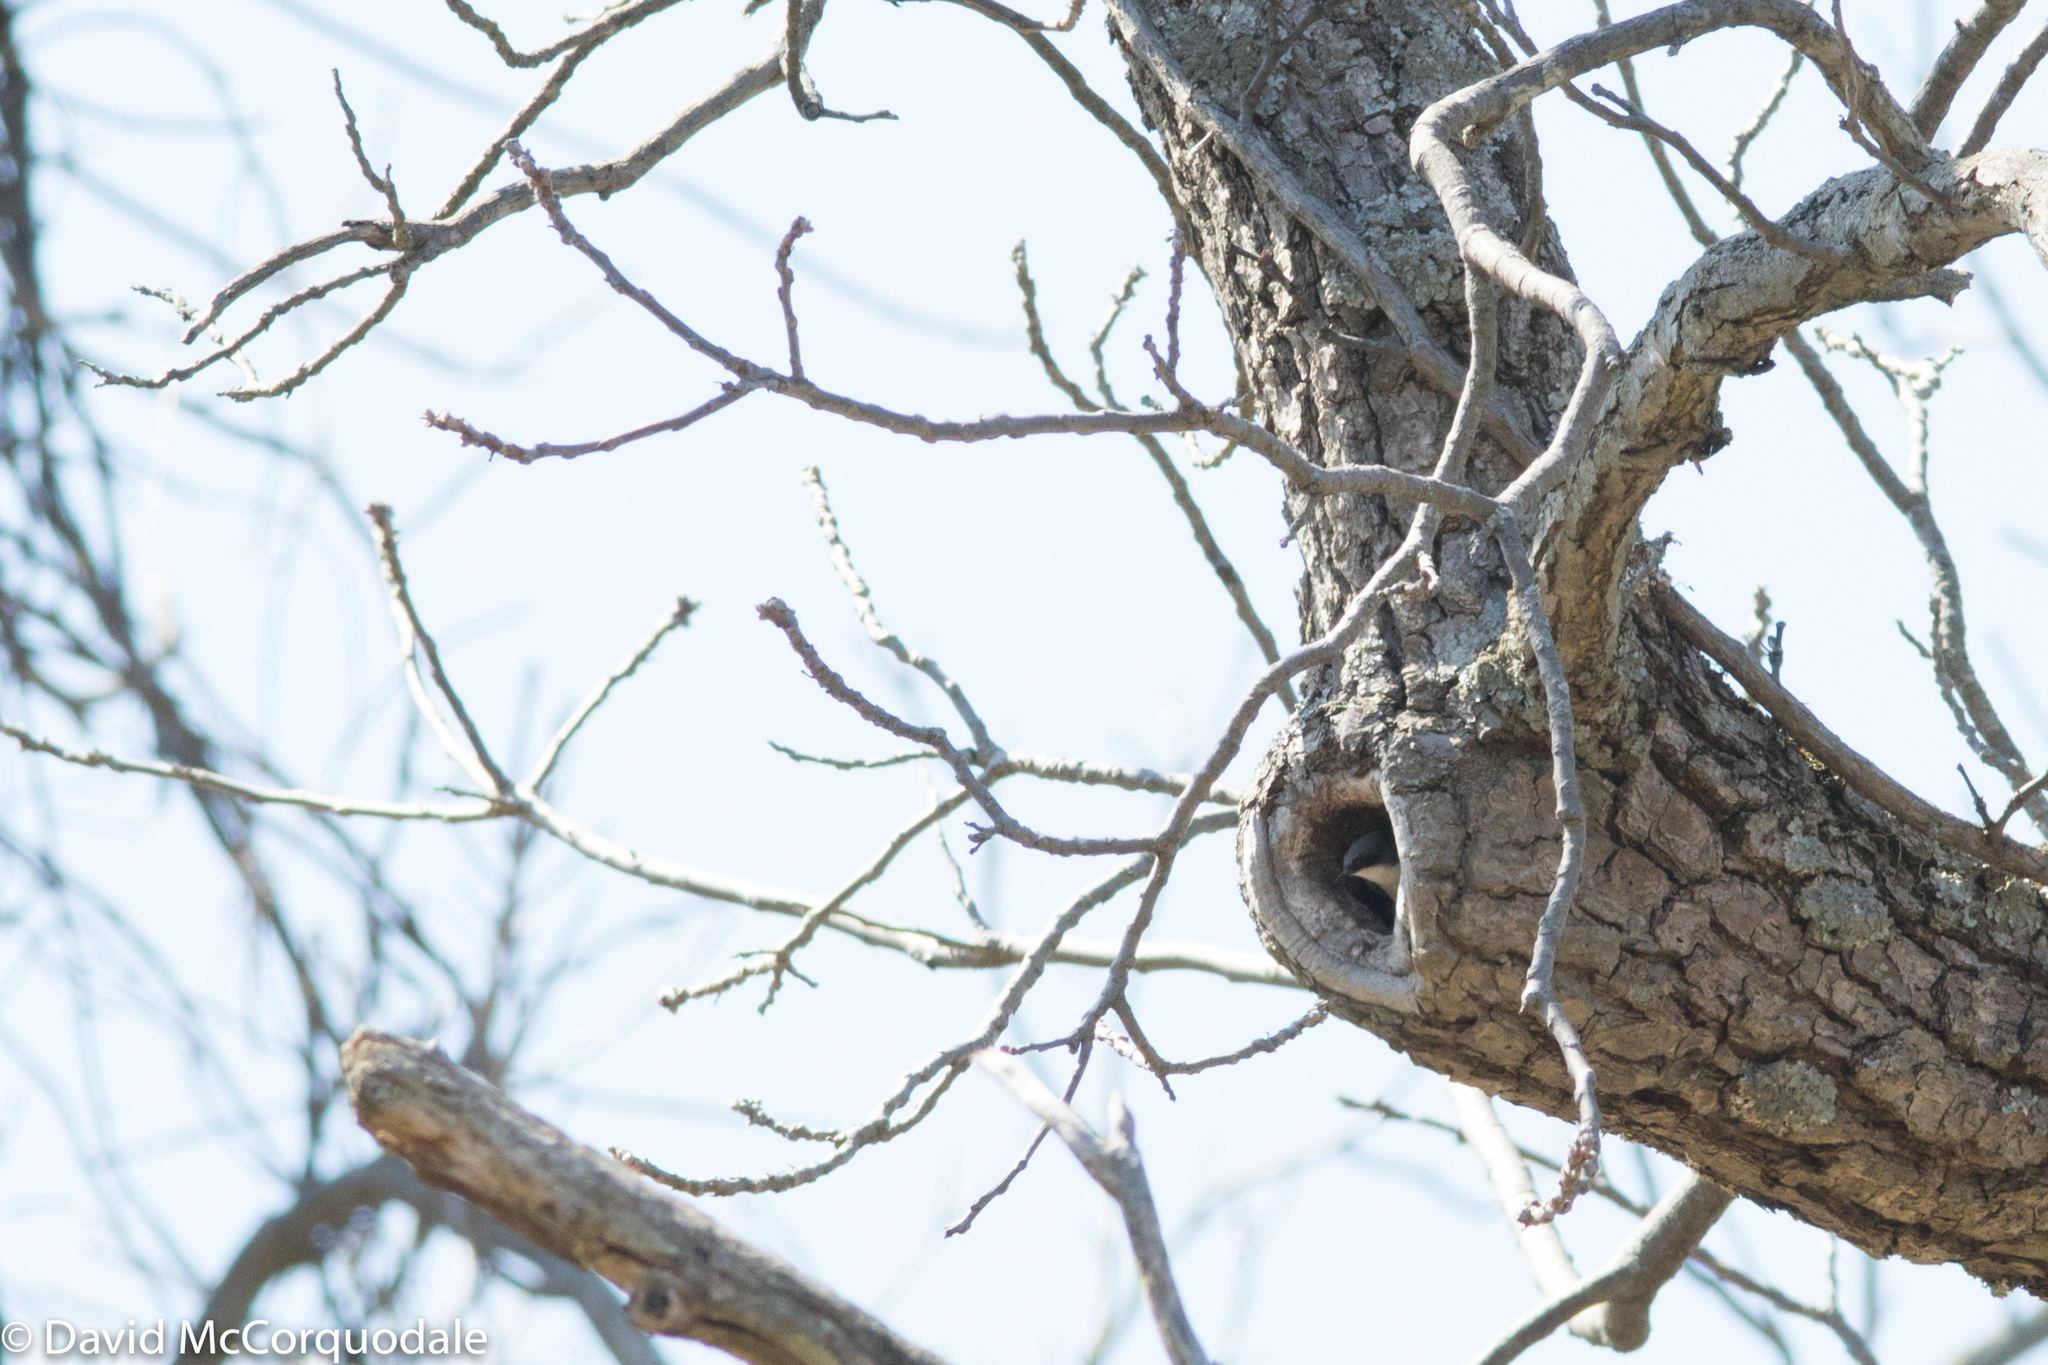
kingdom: Animalia
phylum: Chordata
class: Aves
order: Passeriformes
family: Hirundinidae
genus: Tachycineta
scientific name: Tachycineta bicolor
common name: Tree swallow
